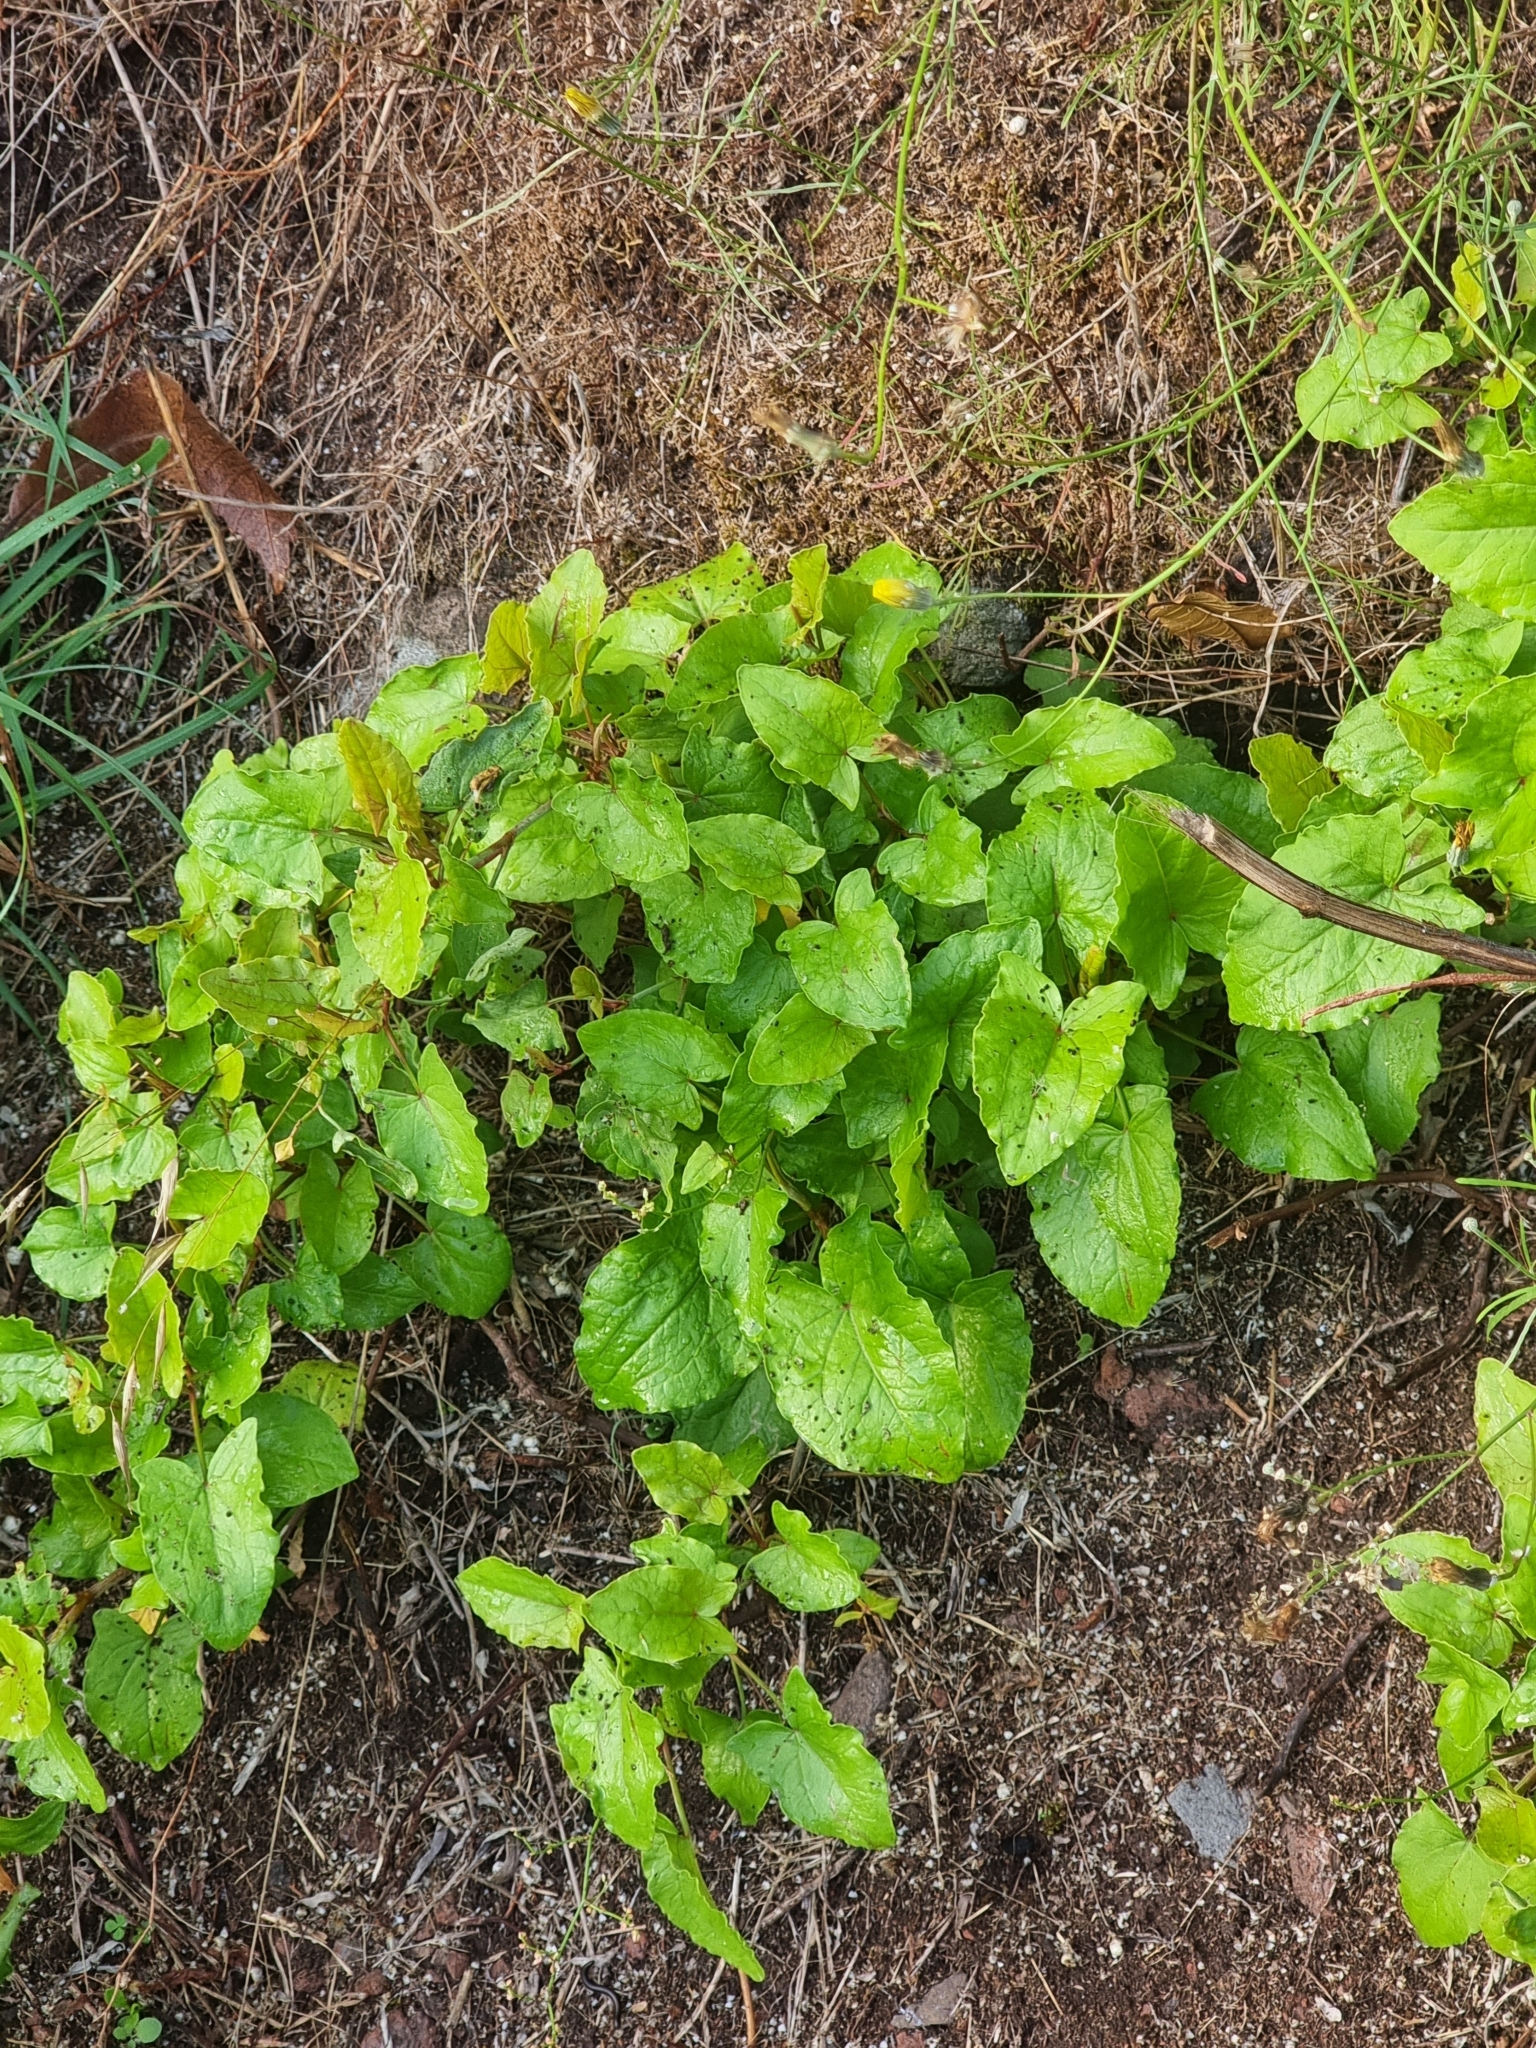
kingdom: Plantae
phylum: Tracheophyta
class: Magnoliopsida
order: Caryophyllales
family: Polygonaceae
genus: Rumex
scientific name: Rumex maderensis
